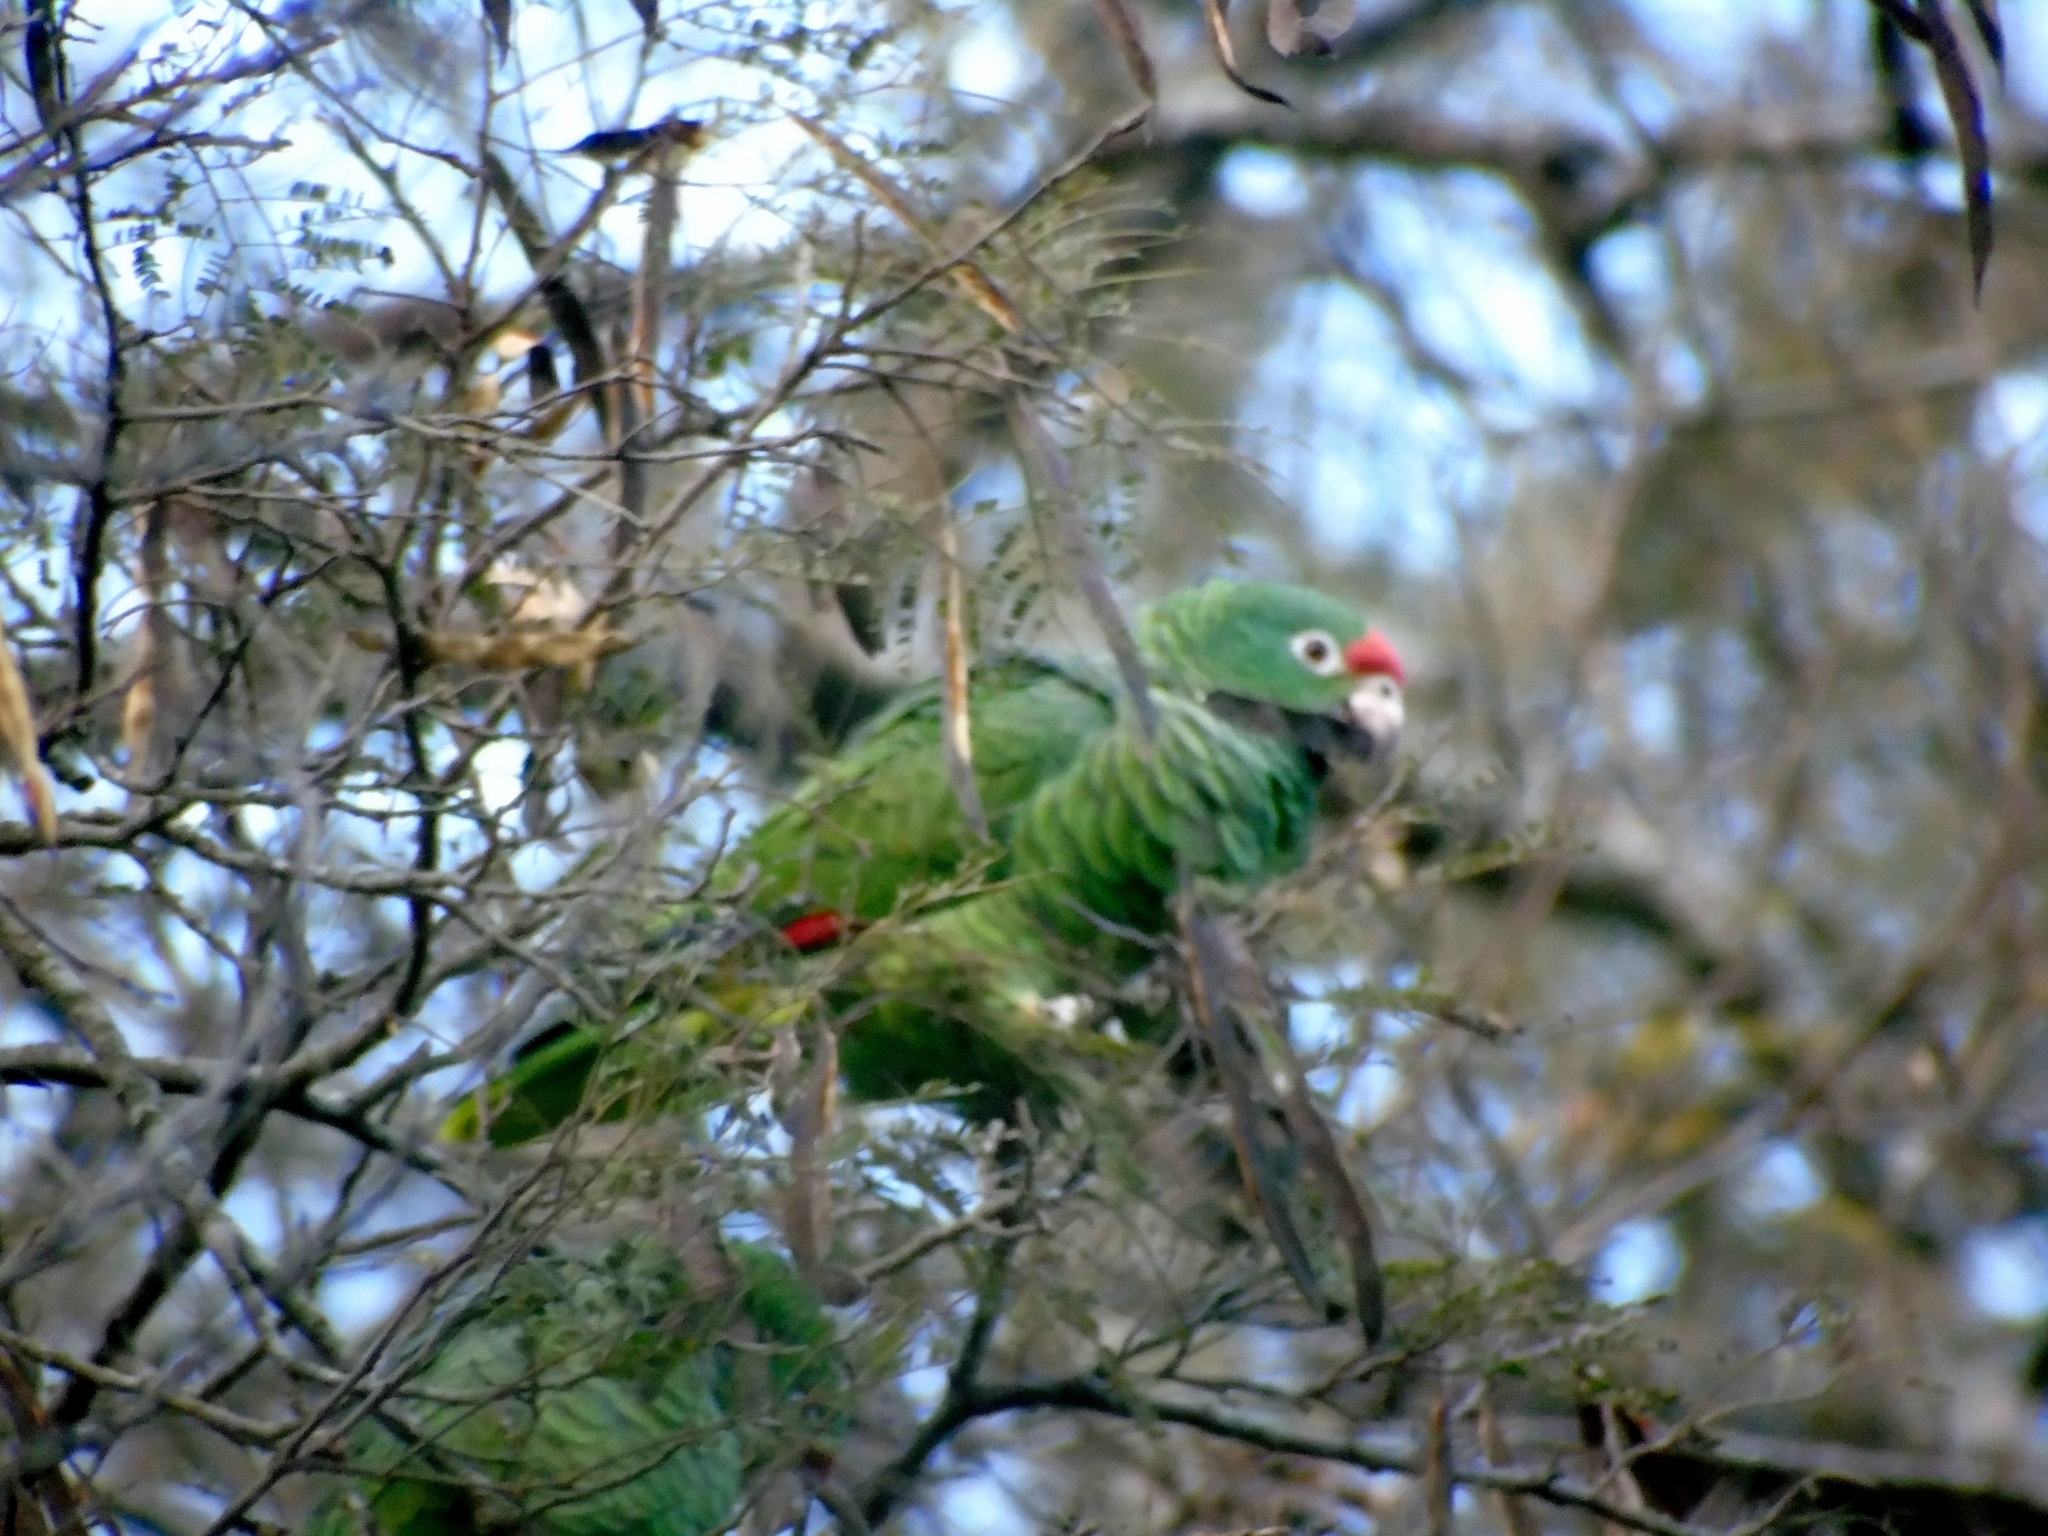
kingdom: Animalia
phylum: Chordata
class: Aves
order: Psittaciformes
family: Psittacidae
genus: Amazona
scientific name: Amazona tucumana
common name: Tucuman amazon
